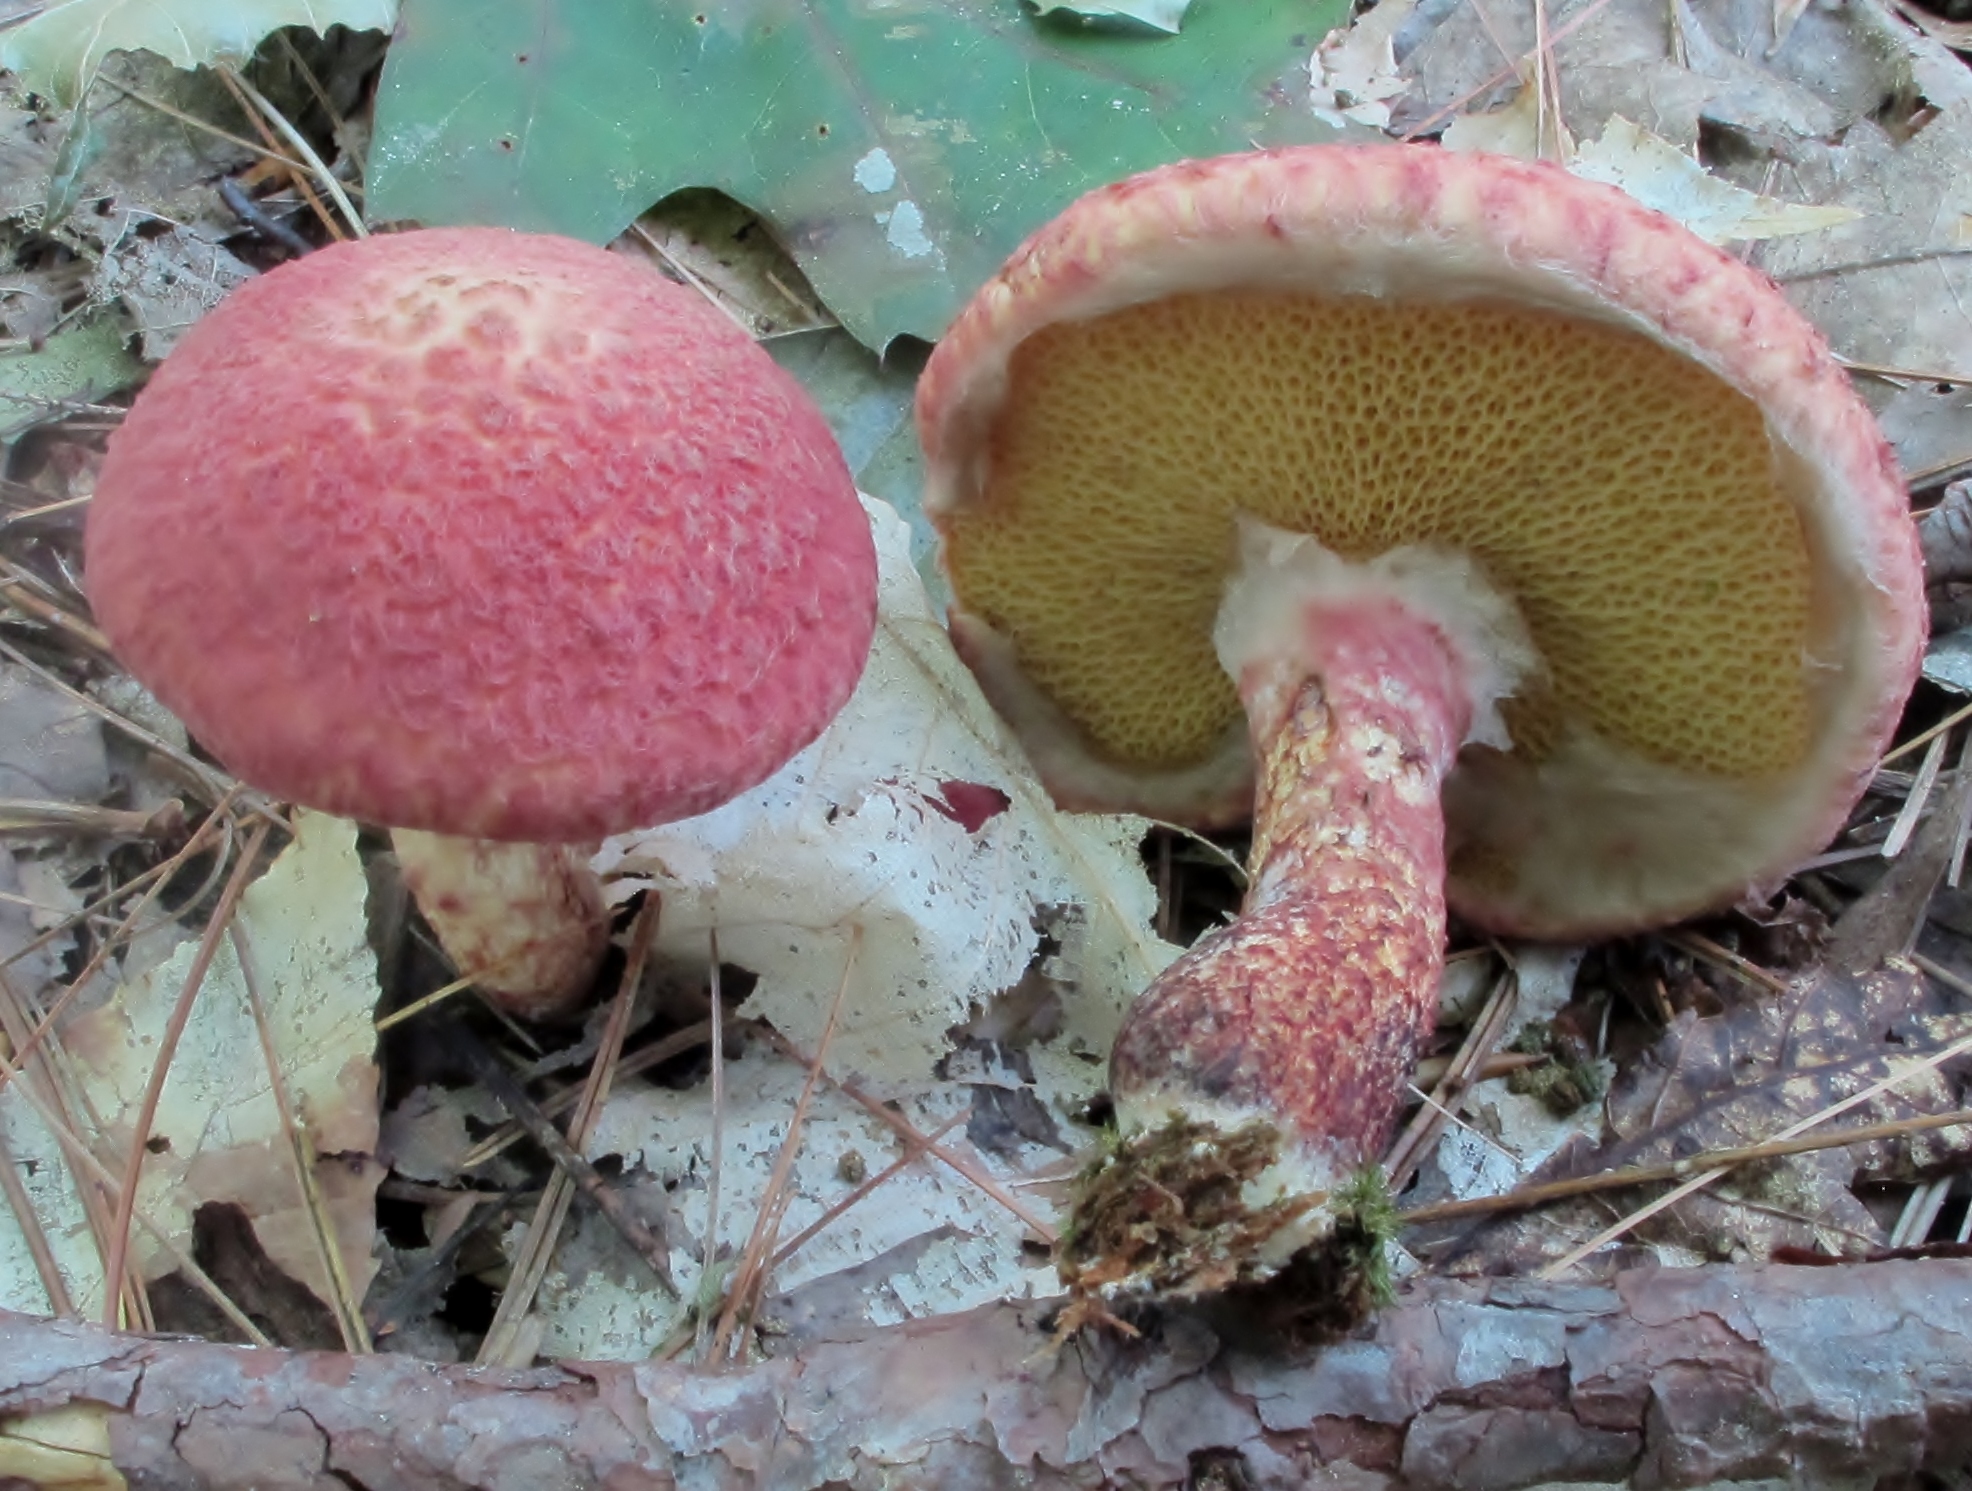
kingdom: Fungi
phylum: Basidiomycota
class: Agaricomycetes
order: Boletales
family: Suillaceae
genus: Suillus
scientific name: Suillus spraguei
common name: Painted suillus
